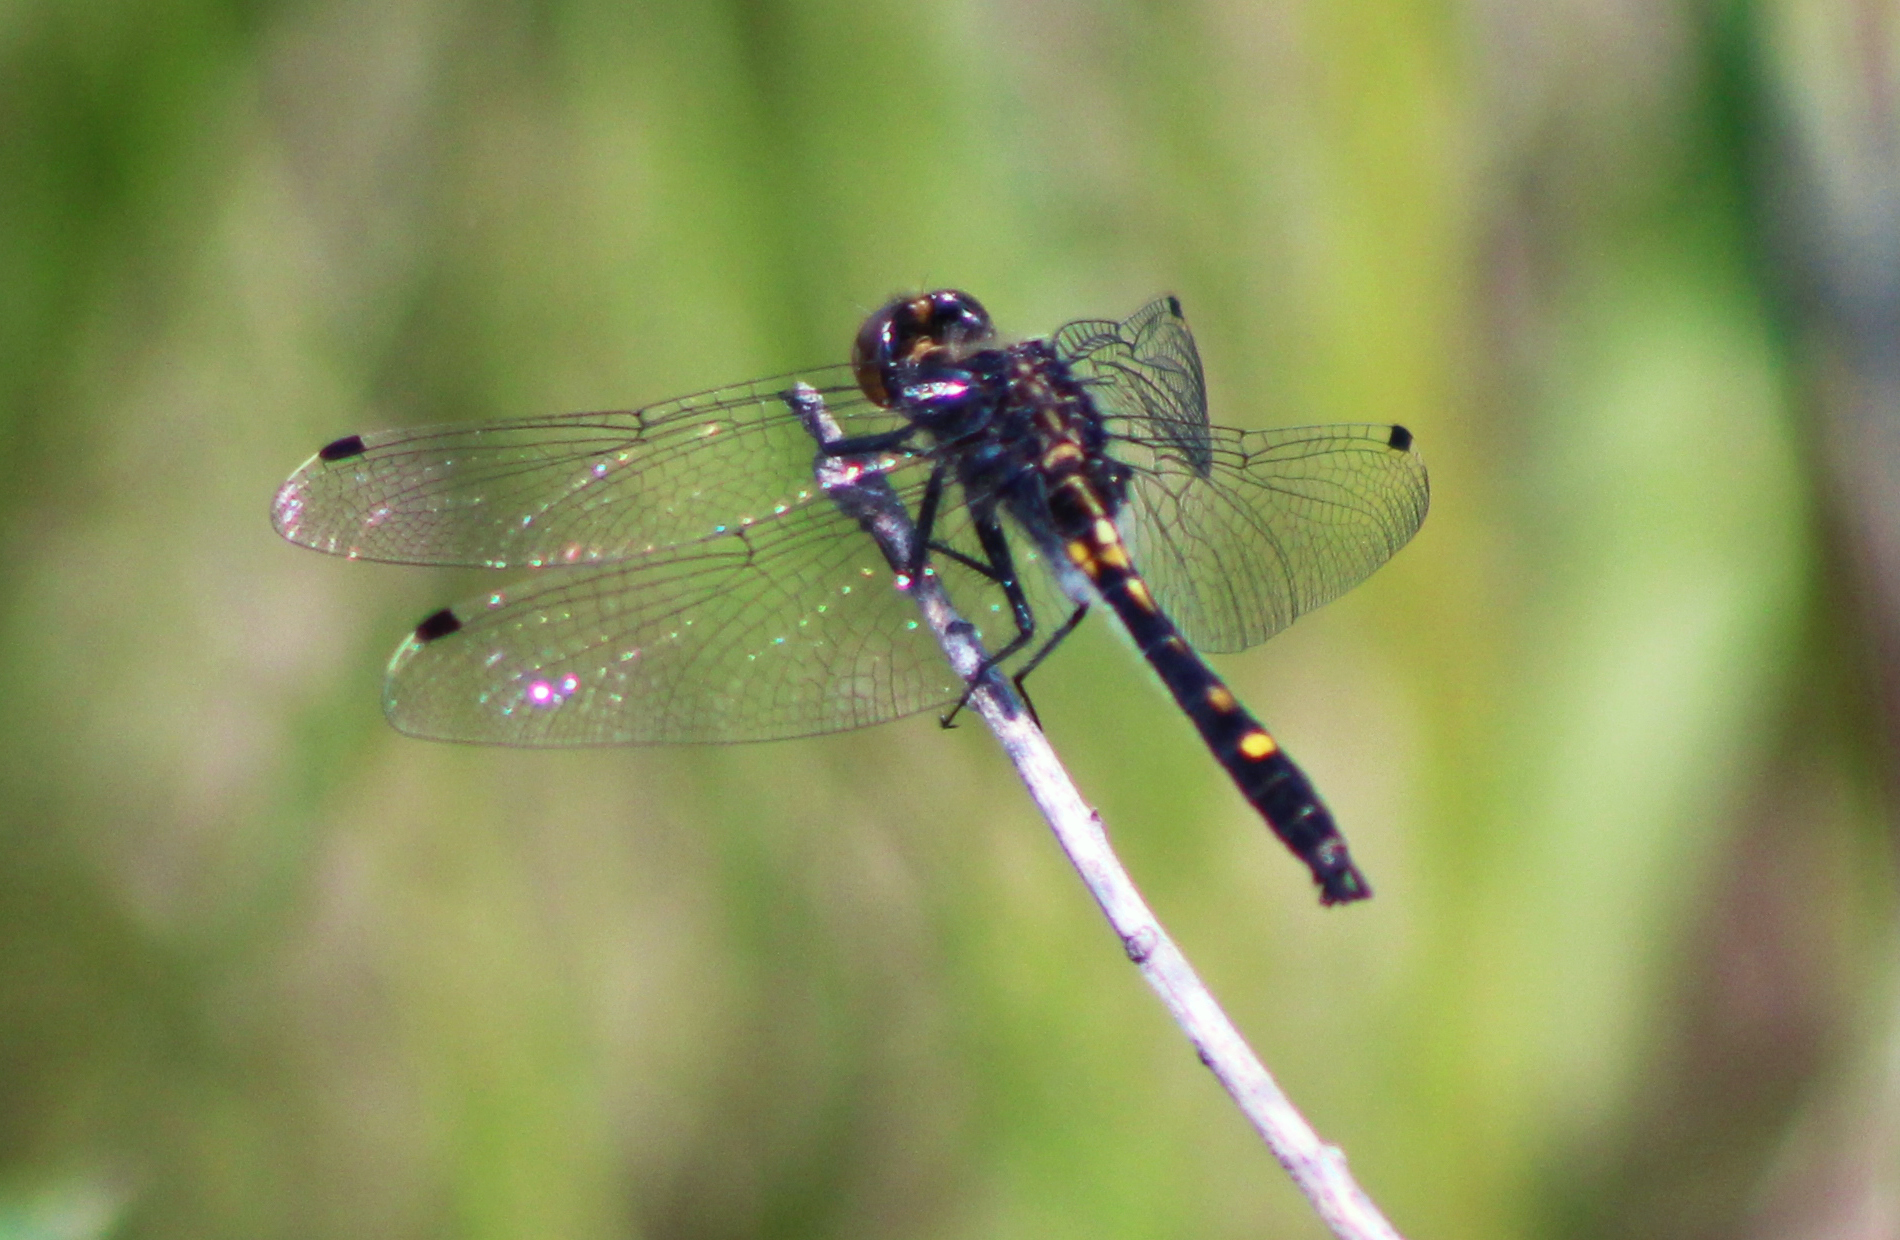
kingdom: Animalia
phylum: Arthropoda
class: Insecta
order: Odonata
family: Libellulidae
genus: Leucorrhinia
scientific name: Leucorrhinia intacta
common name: Dot-tailed whiteface
